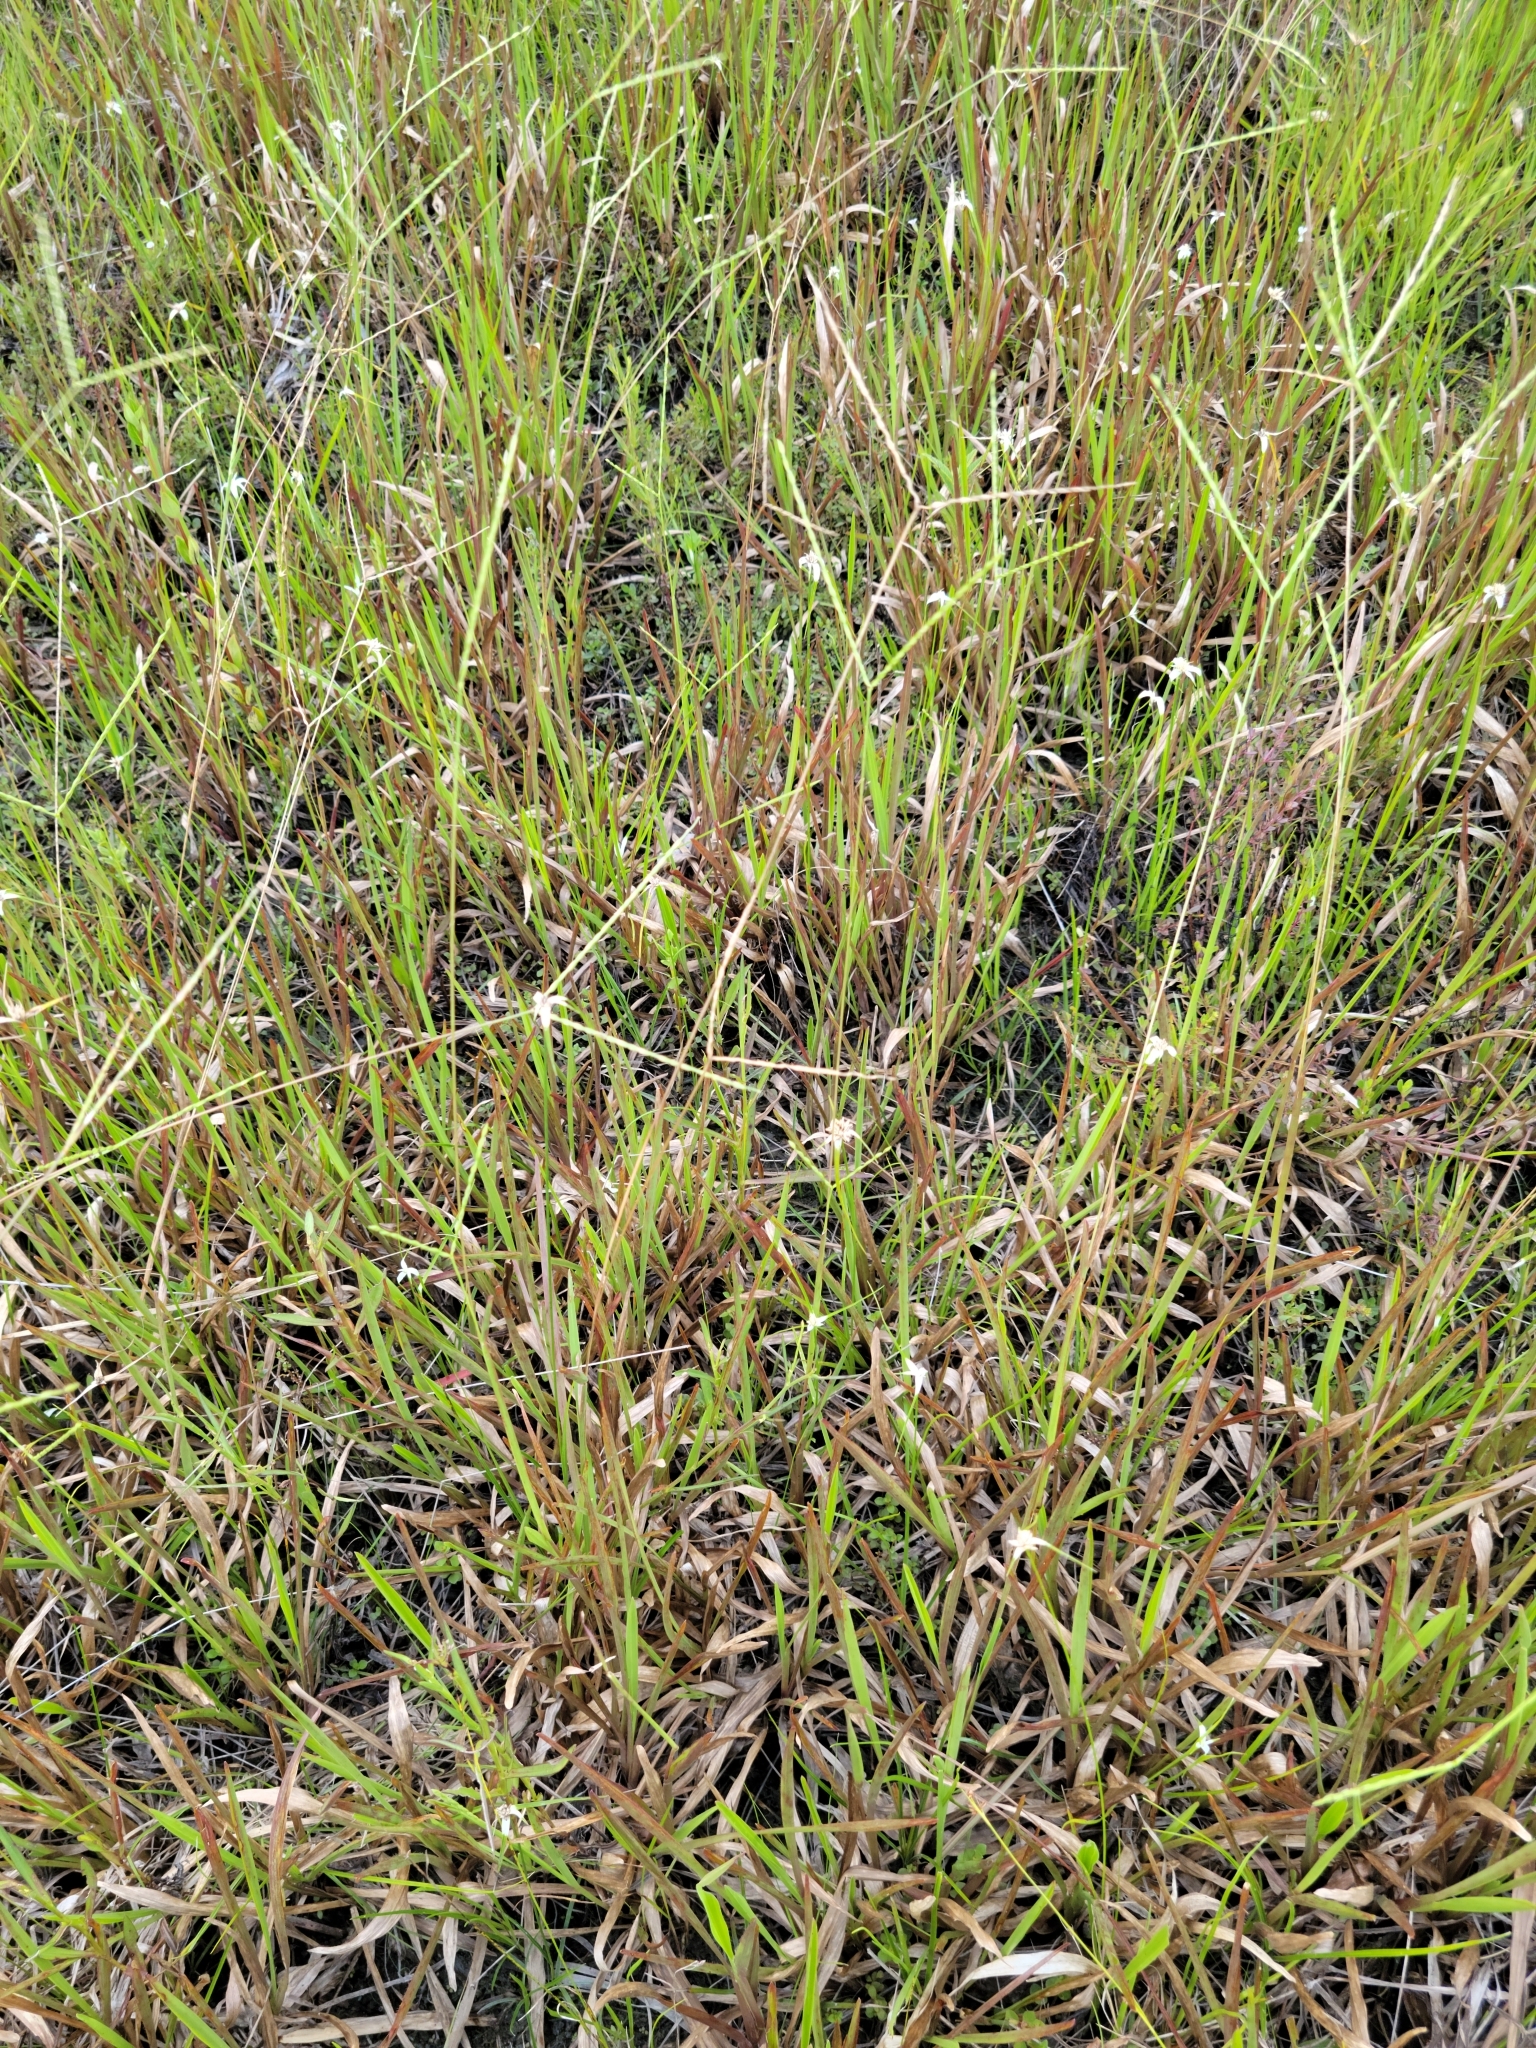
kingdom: Plantae
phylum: Tracheophyta
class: Liliopsida
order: Poales
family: Poaceae
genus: Axonopus
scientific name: Axonopus furcatus
